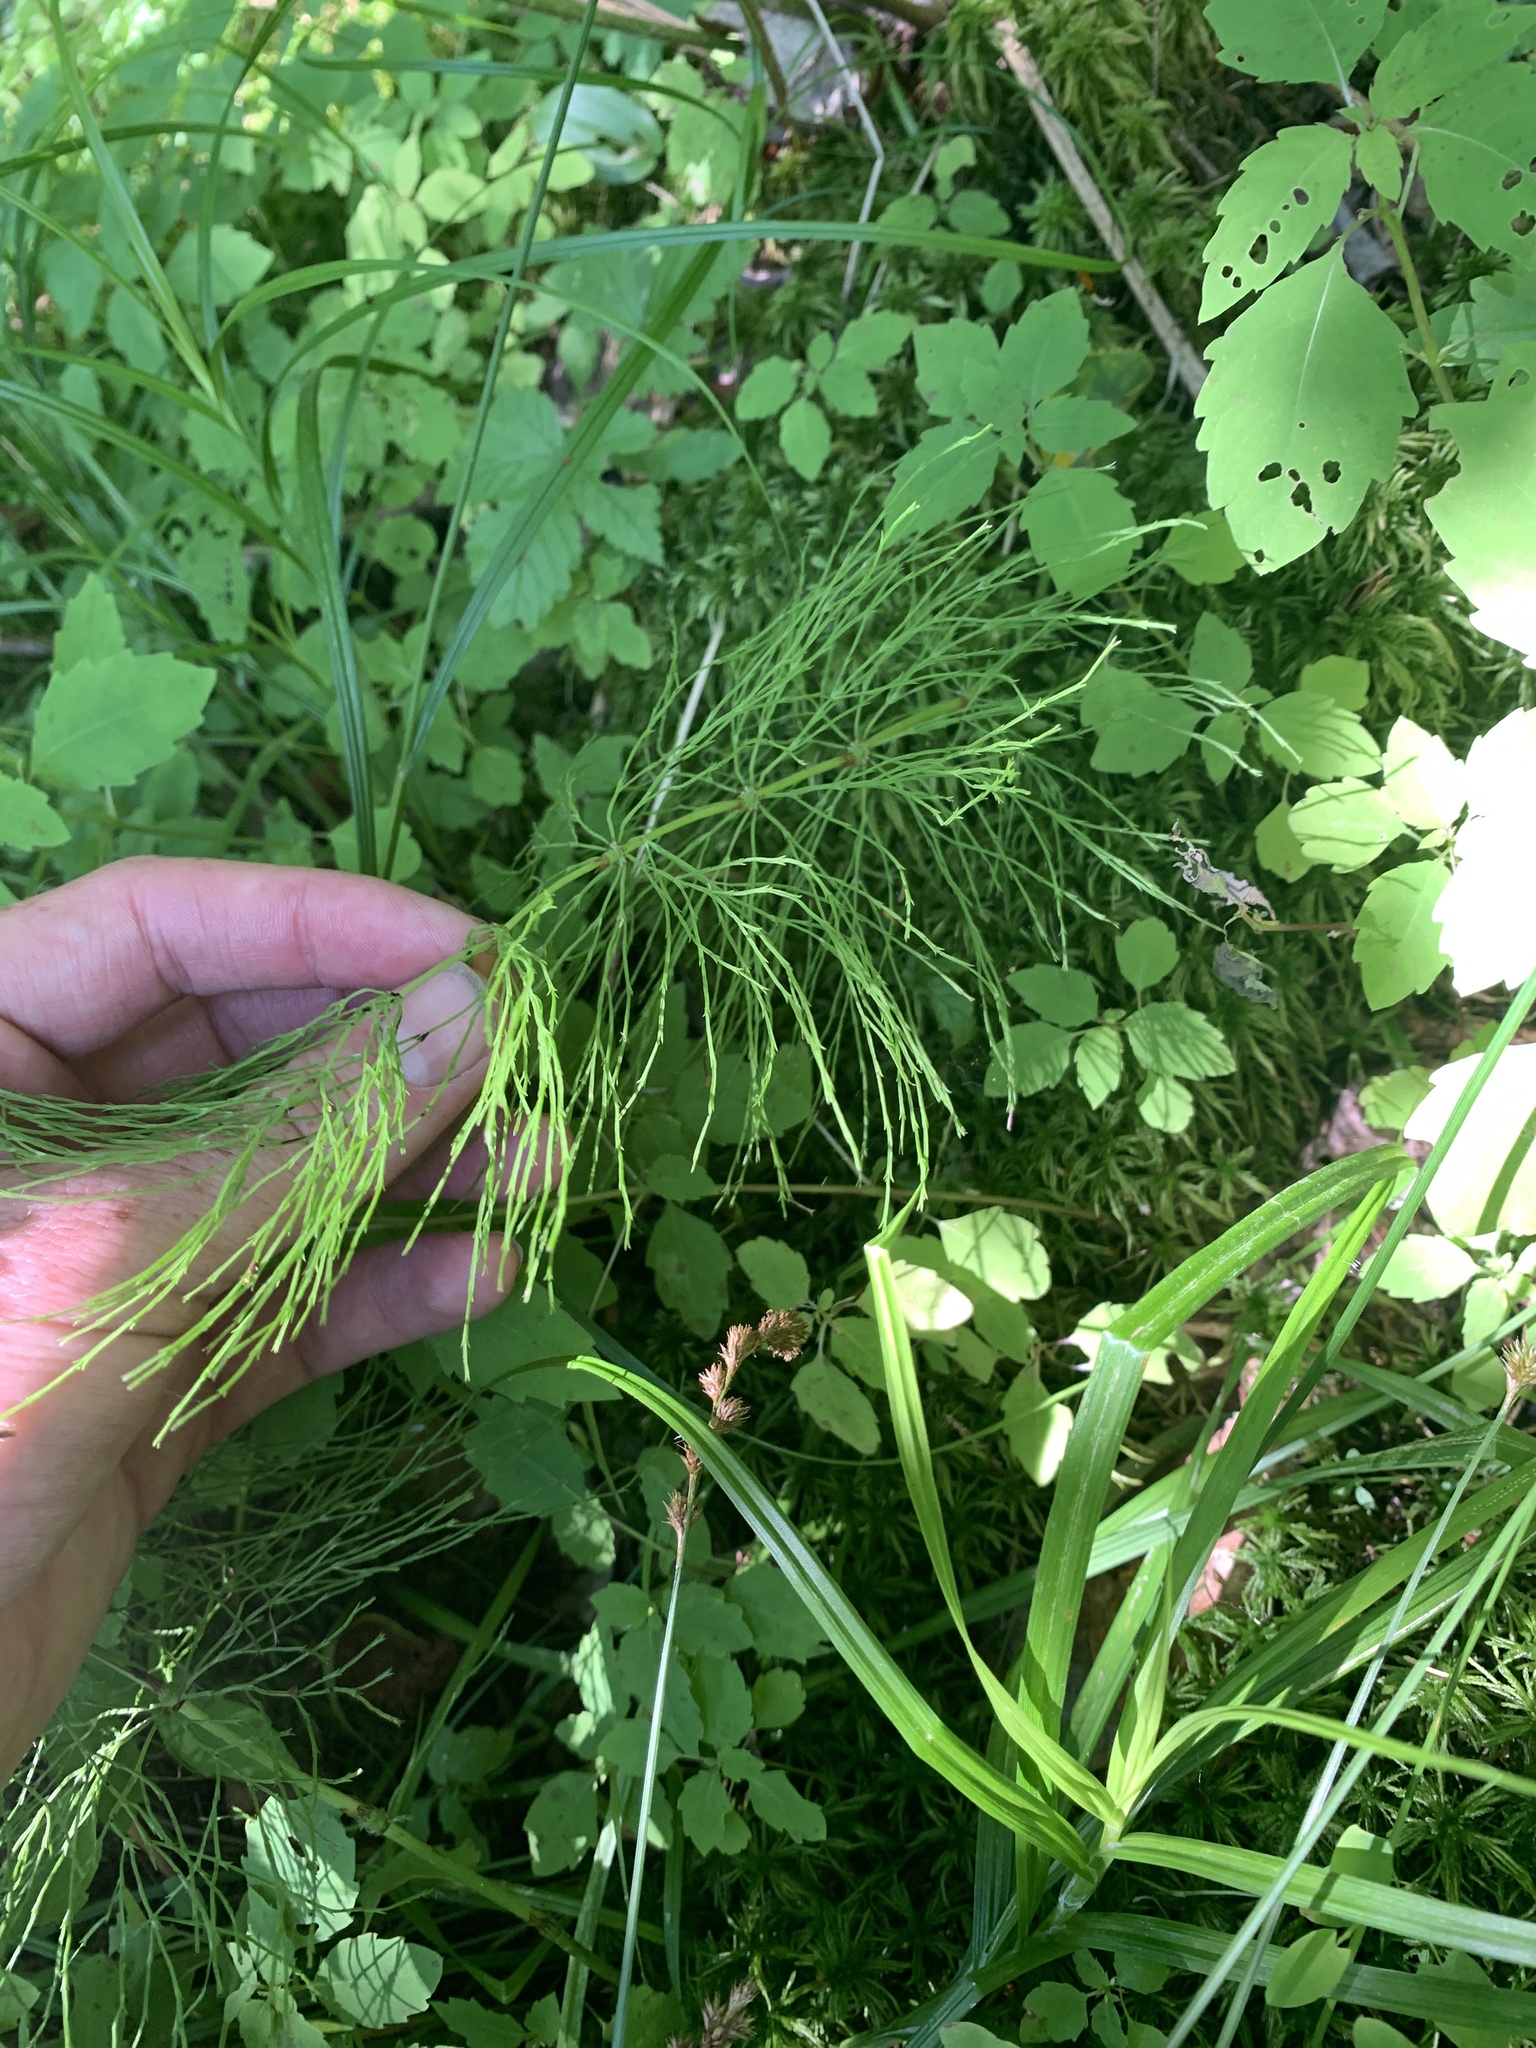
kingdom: Plantae
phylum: Tracheophyta
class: Polypodiopsida
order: Equisetales
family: Equisetaceae
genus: Equisetum
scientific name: Equisetum sylvaticum
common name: Wood horsetail
